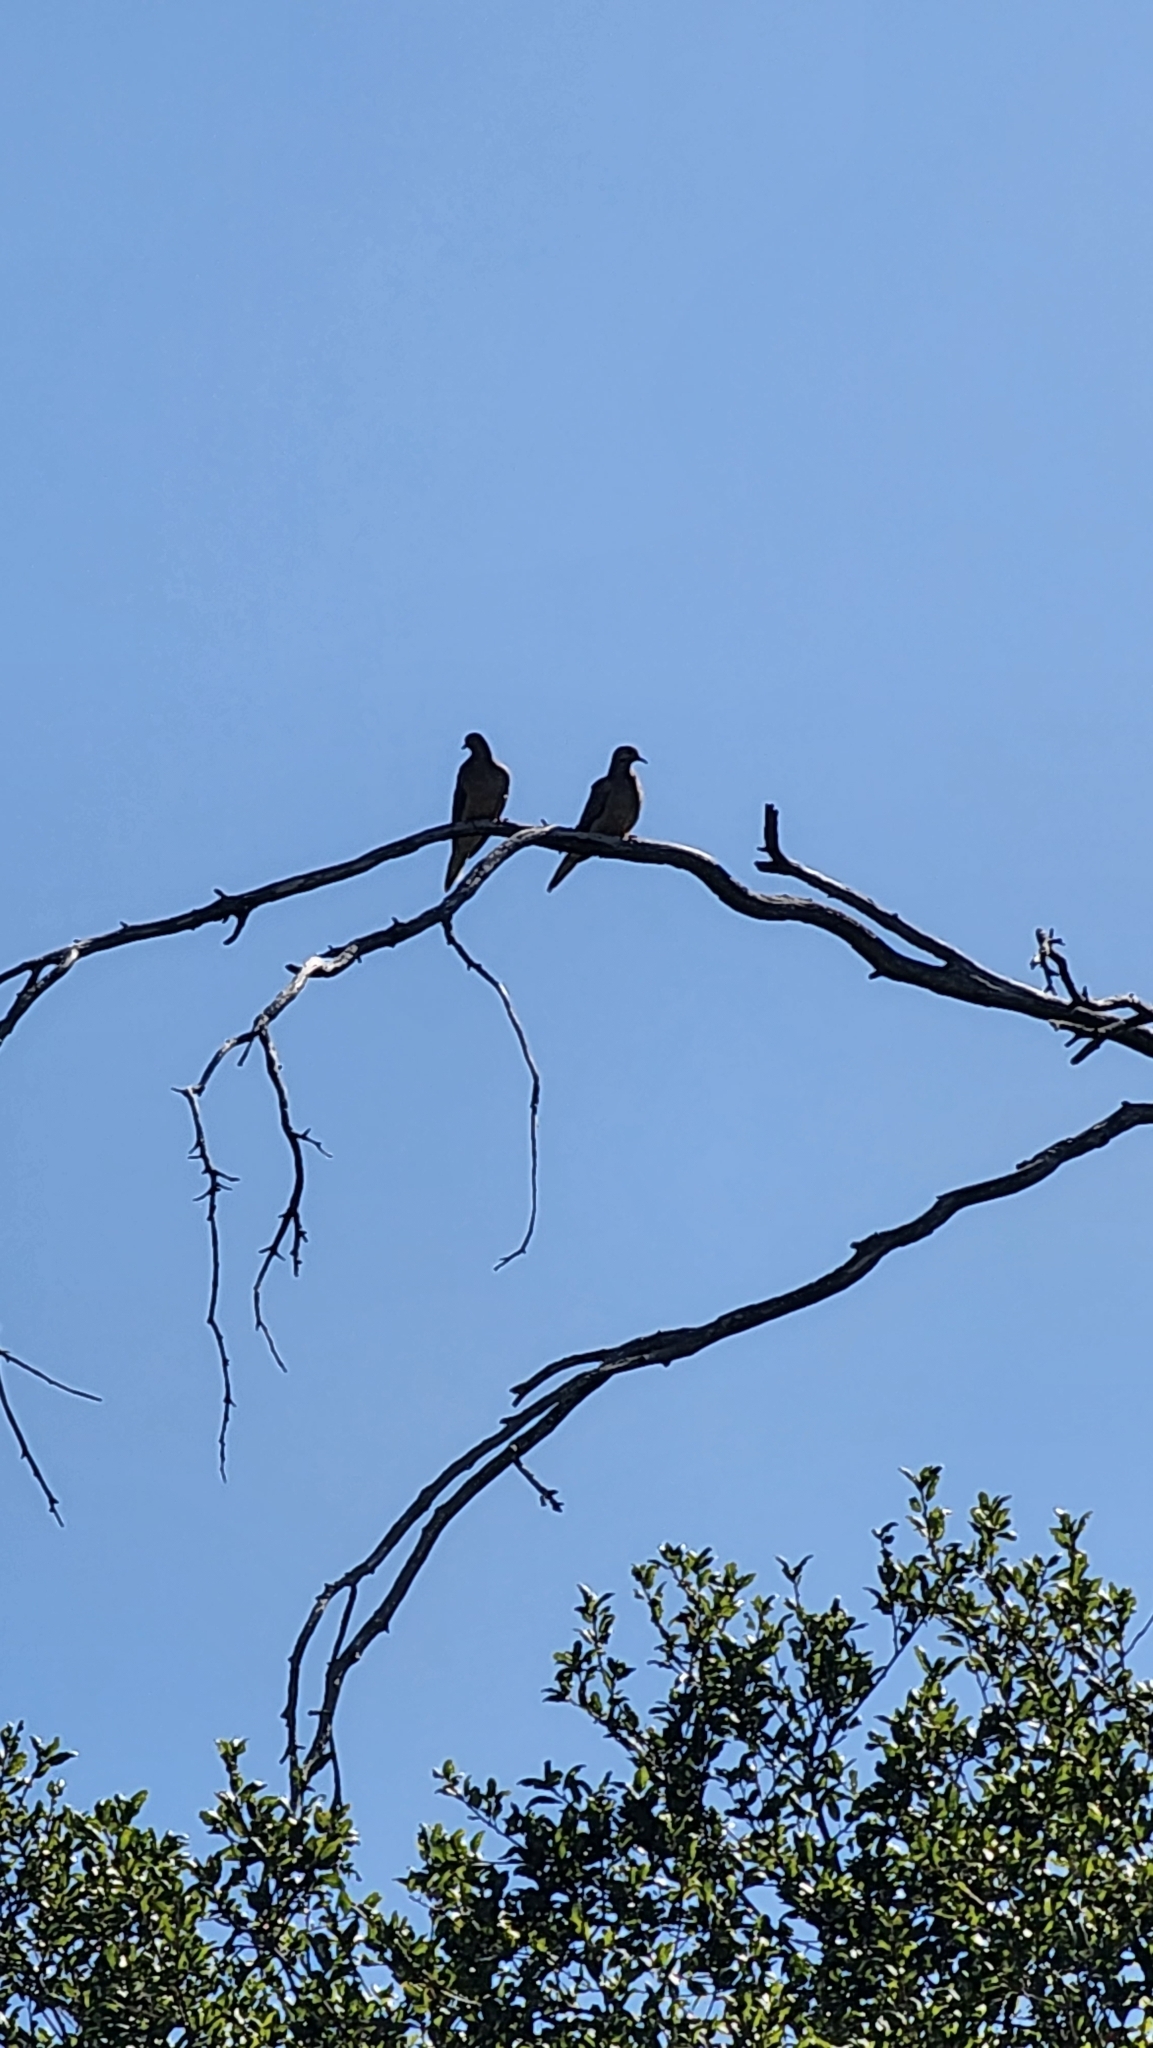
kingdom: Animalia
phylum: Chordata
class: Aves
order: Columbiformes
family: Columbidae
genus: Zenaida
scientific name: Zenaida macroura
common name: Mourning dove
